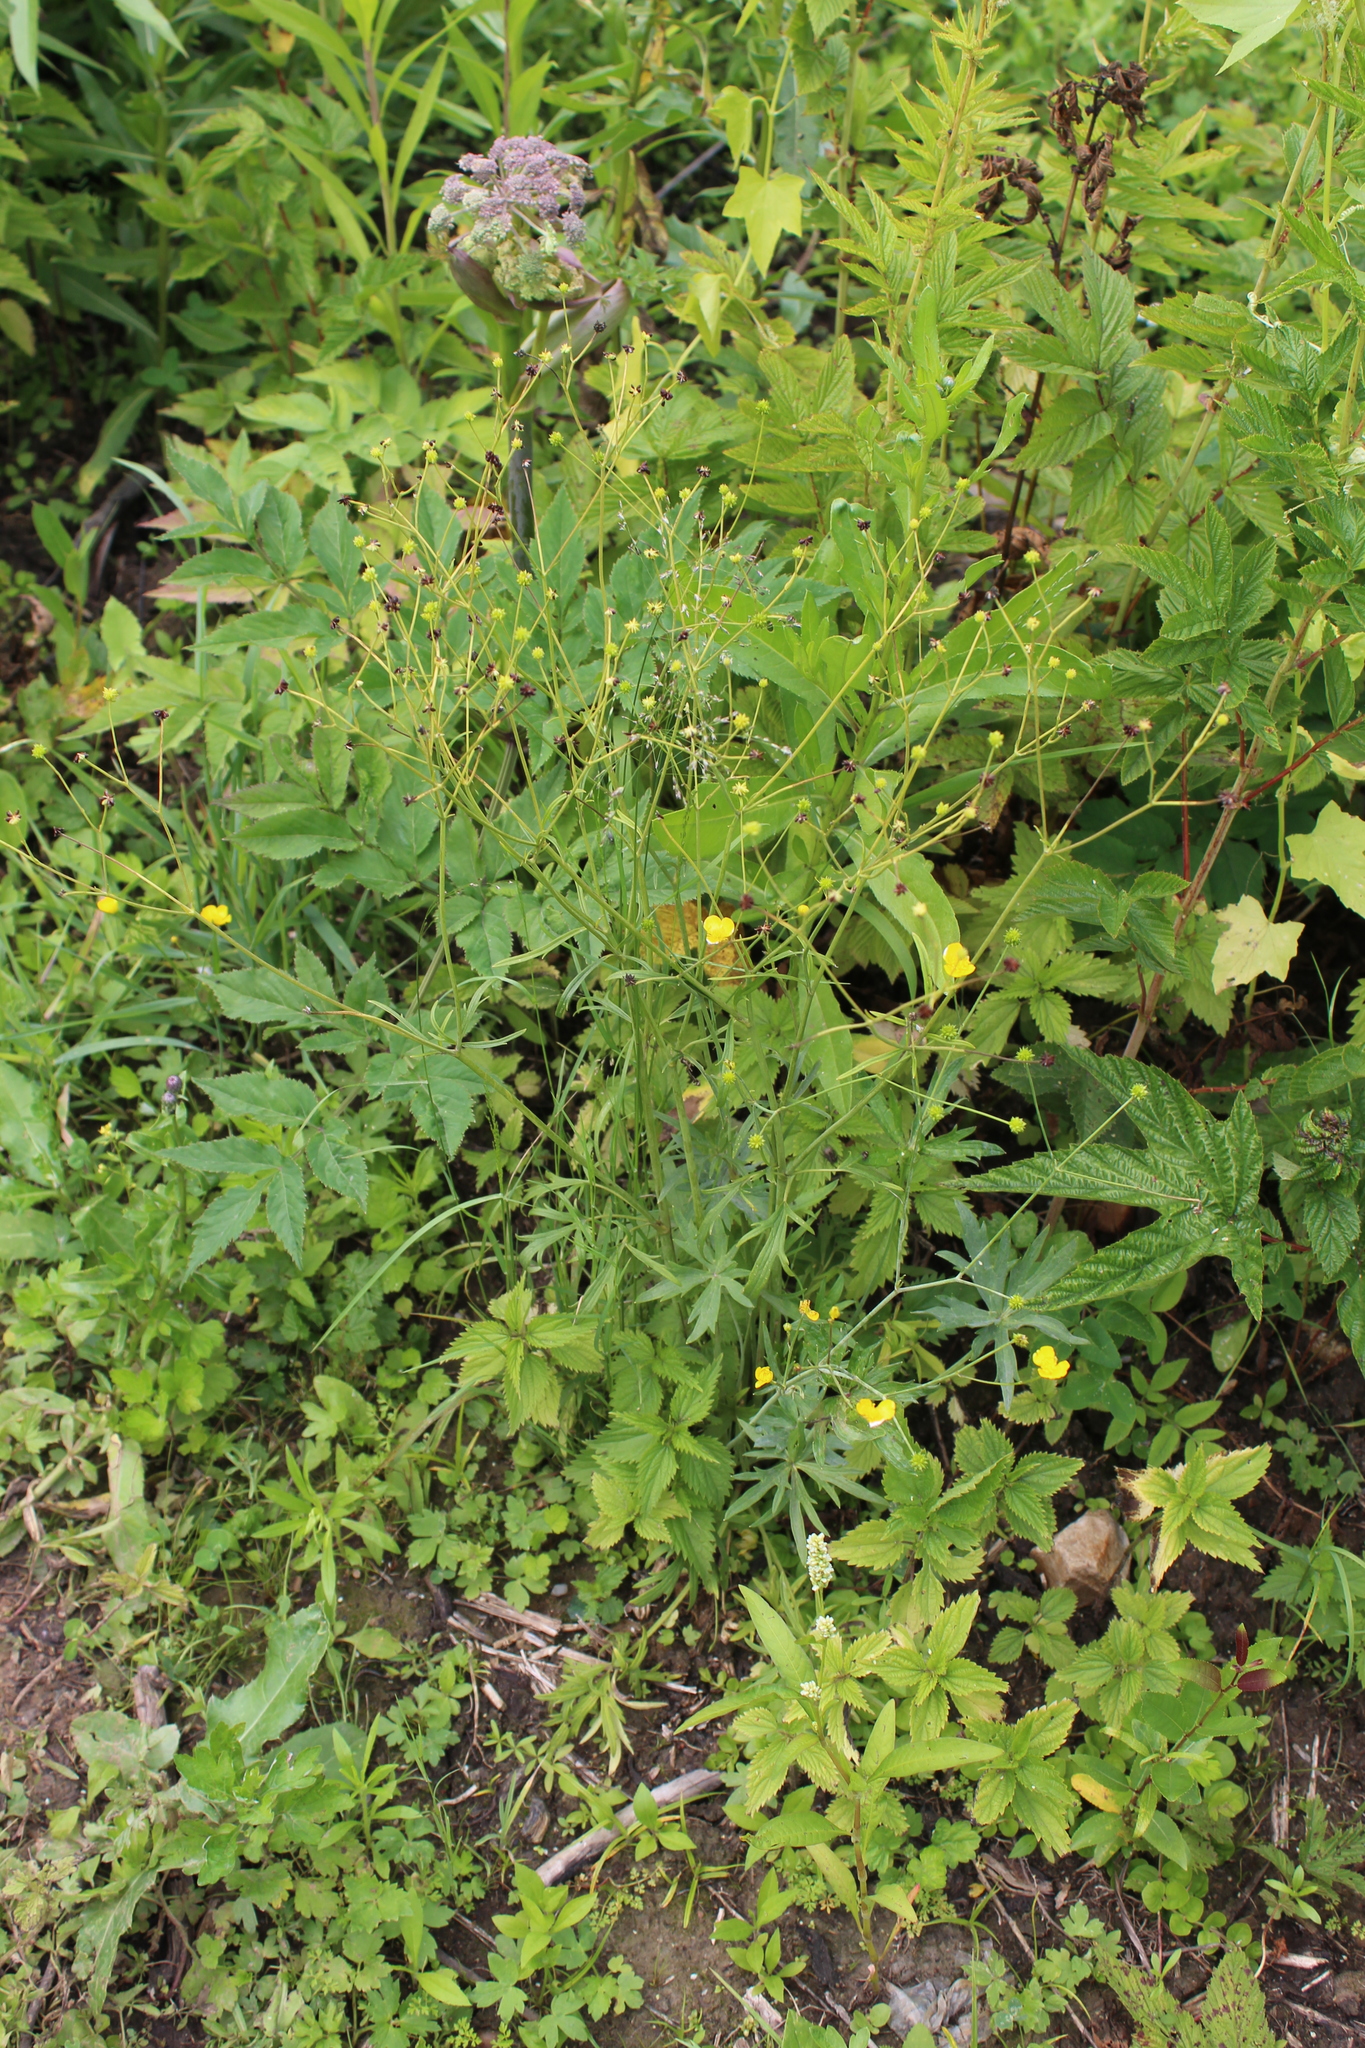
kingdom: Plantae
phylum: Tracheophyta
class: Magnoliopsida
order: Ranunculales
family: Ranunculaceae
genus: Ranunculus
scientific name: Ranunculus acris
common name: Meadow buttercup
